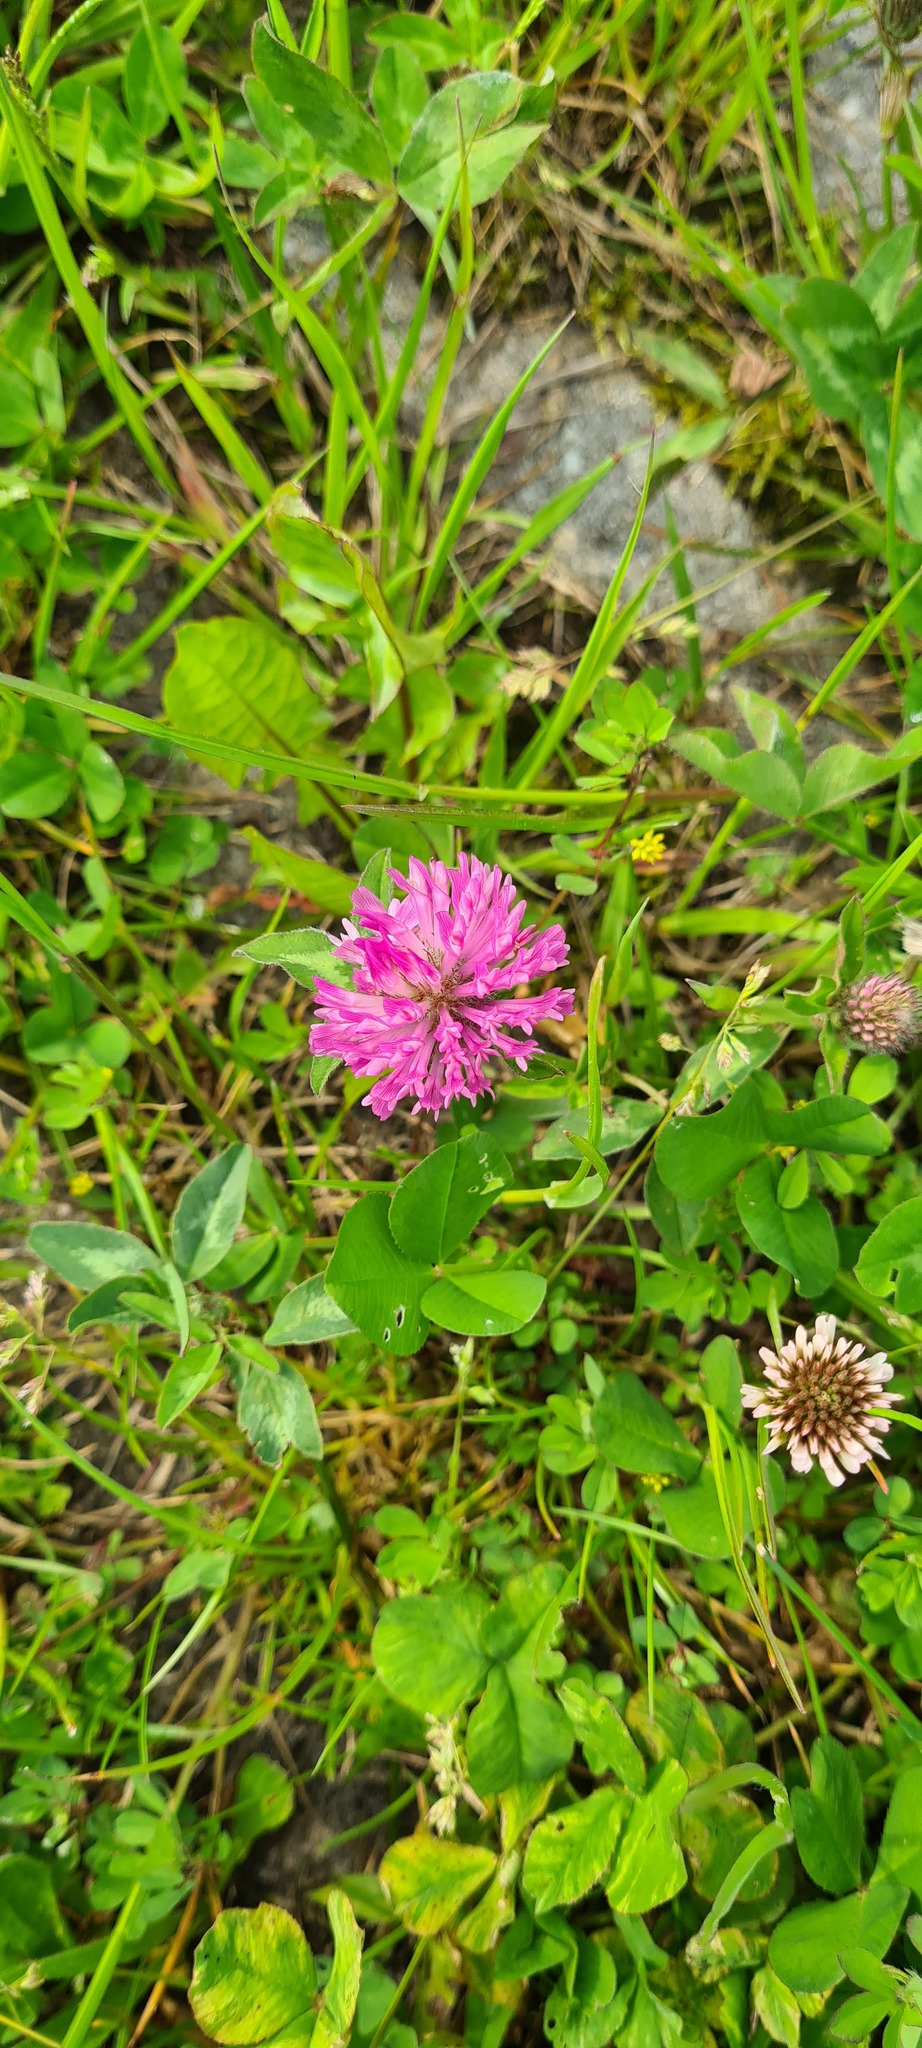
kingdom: Plantae
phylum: Tracheophyta
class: Magnoliopsida
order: Fabales
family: Fabaceae
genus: Trifolium
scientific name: Trifolium pratense
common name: Red clover
